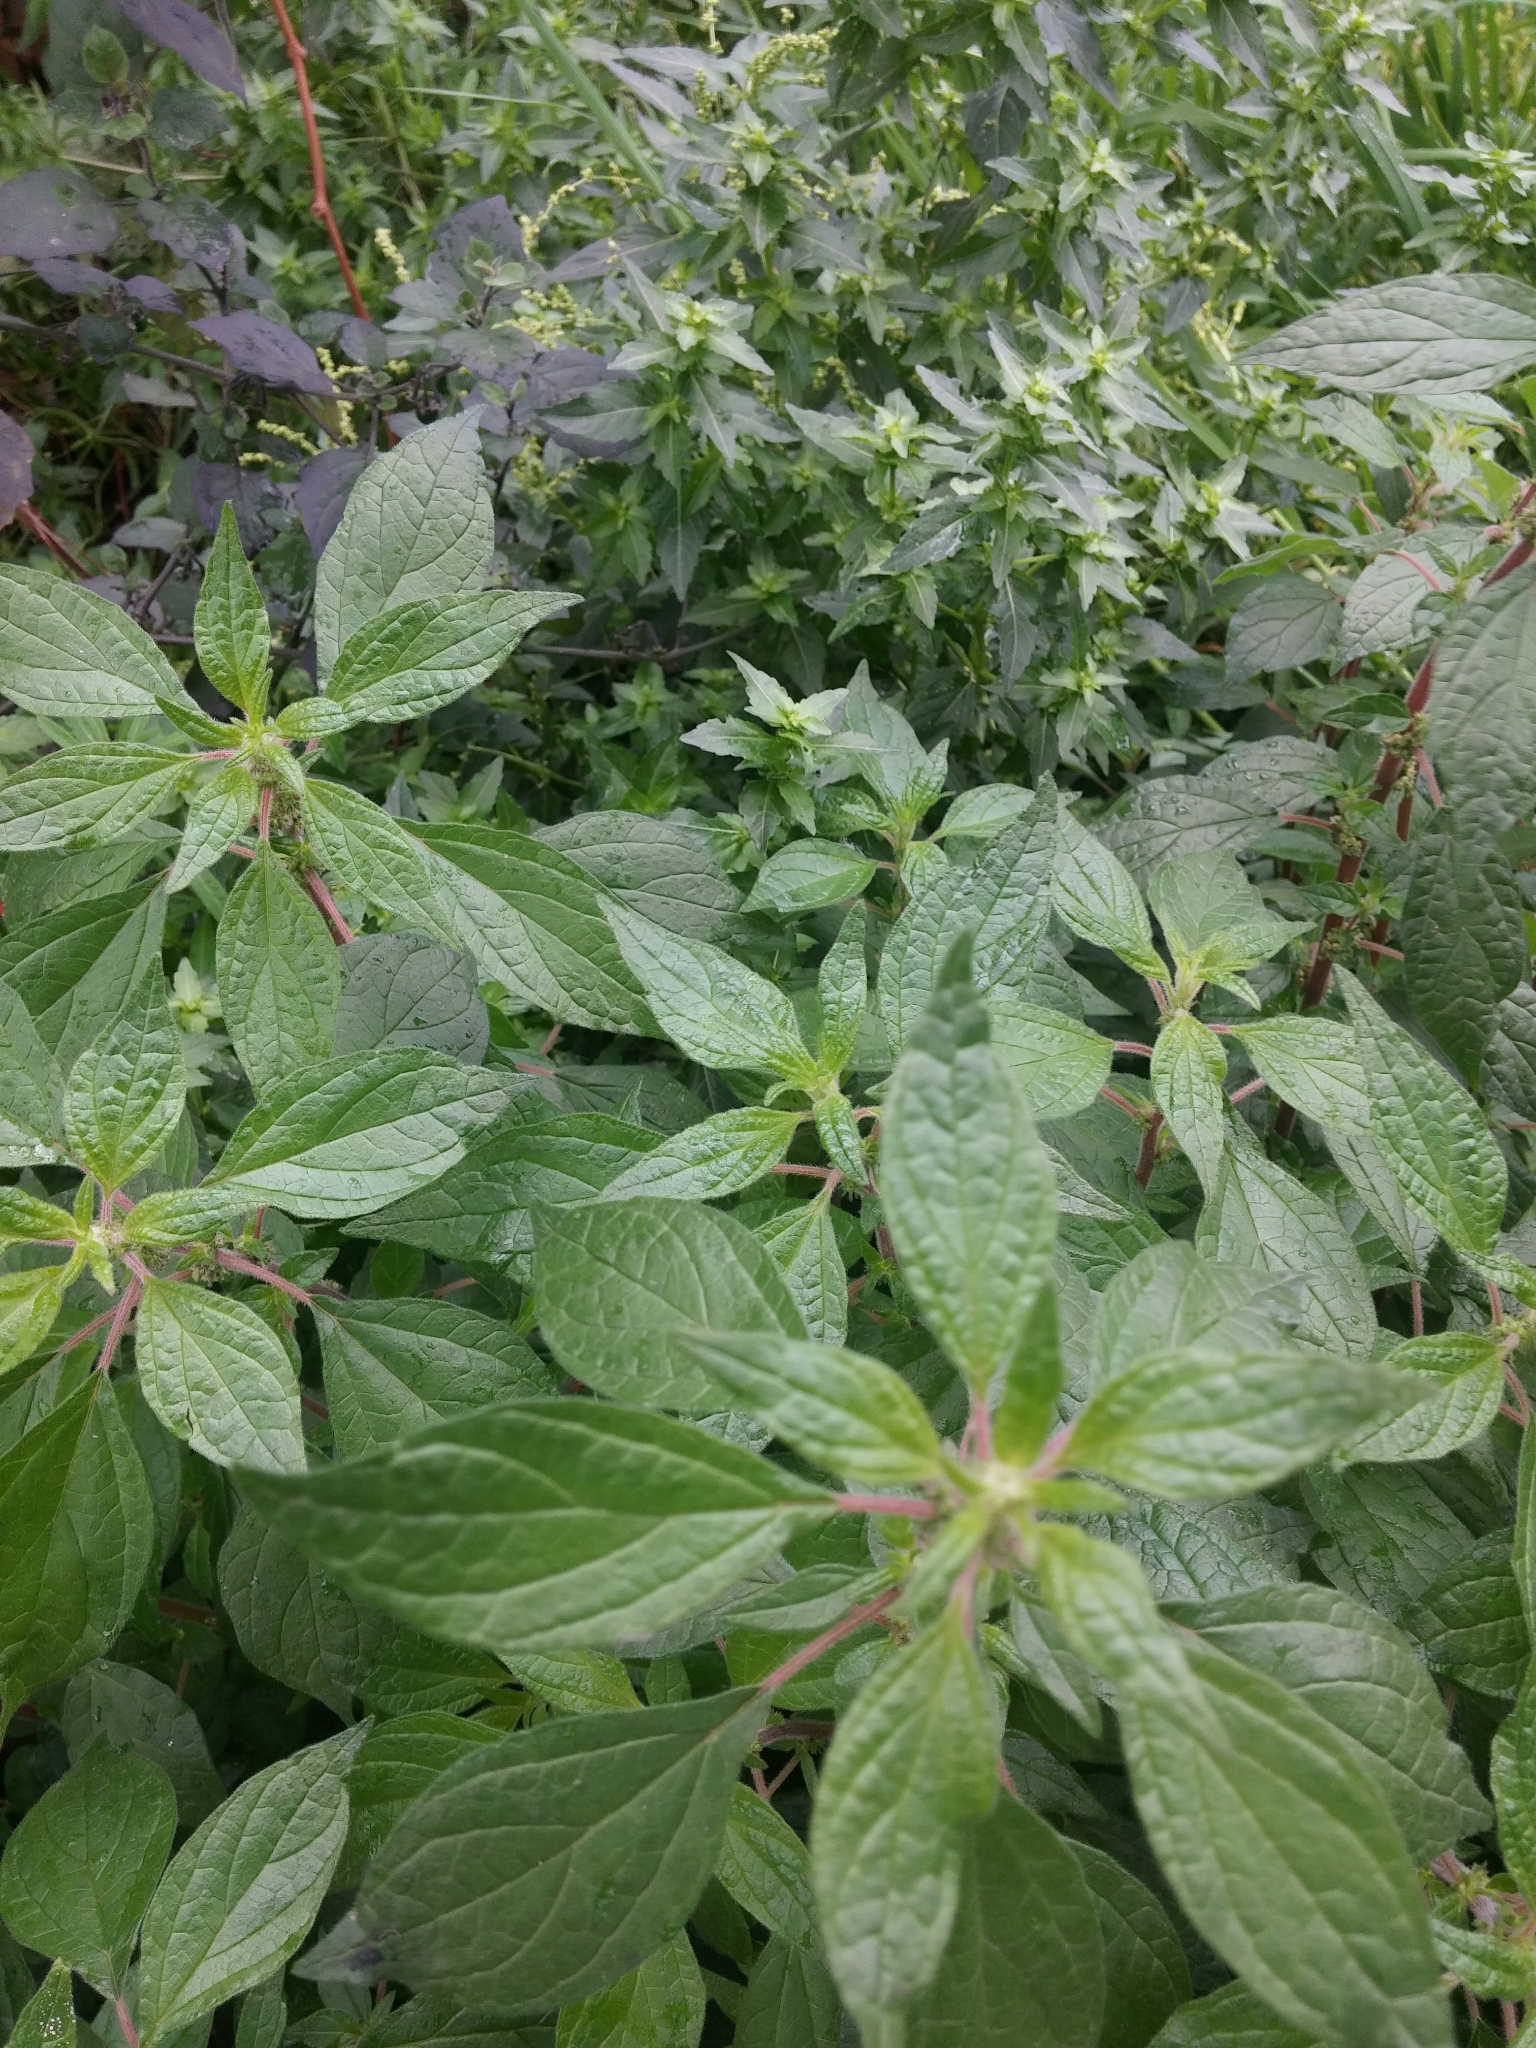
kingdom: Plantae
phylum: Tracheophyta
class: Magnoliopsida
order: Rosales
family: Urticaceae
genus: Parietaria
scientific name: Parietaria officinalis
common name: Eastern pellitory-of-the-wall
